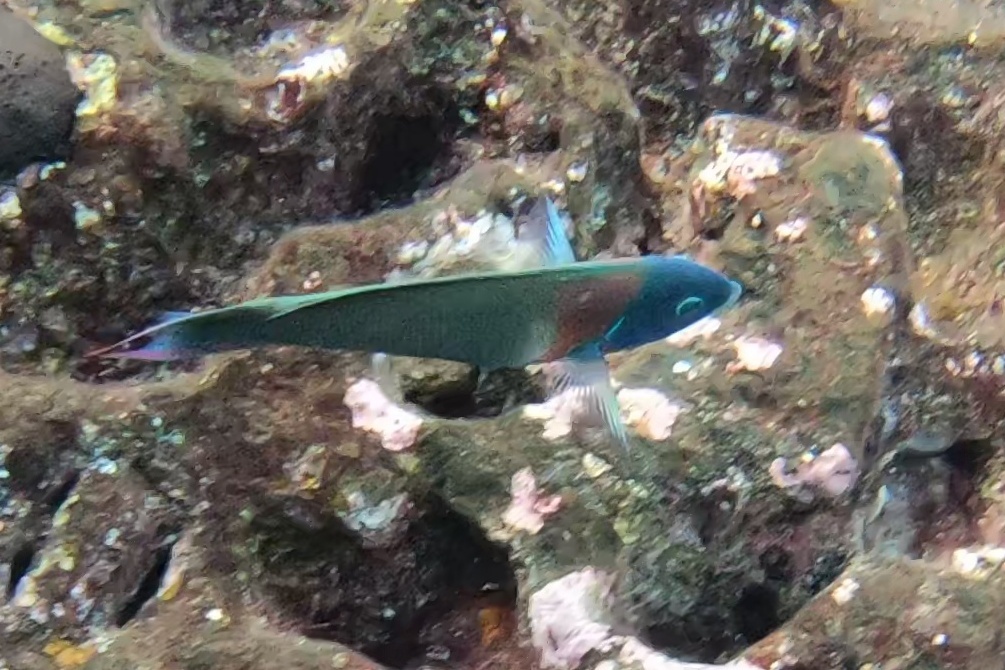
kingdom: Animalia
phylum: Chordata
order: Perciformes
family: Labridae
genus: Thalassoma
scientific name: Thalassoma duperrey
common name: Saddle wrasse
